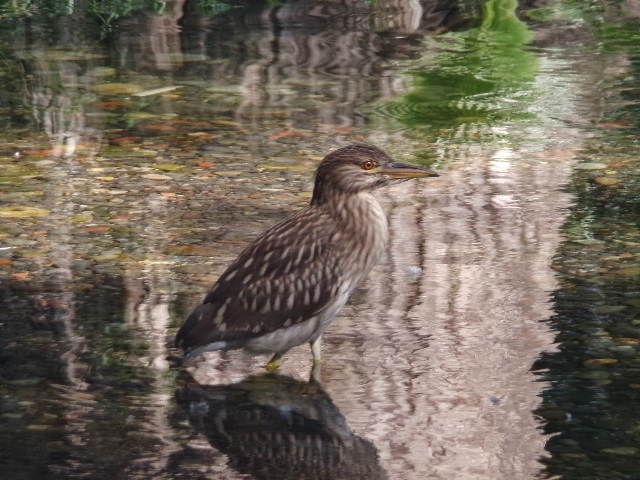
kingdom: Animalia
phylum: Chordata
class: Aves
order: Pelecaniformes
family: Ardeidae
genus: Nycticorax
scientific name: Nycticorax nycticorax
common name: Black-crowned night heron
